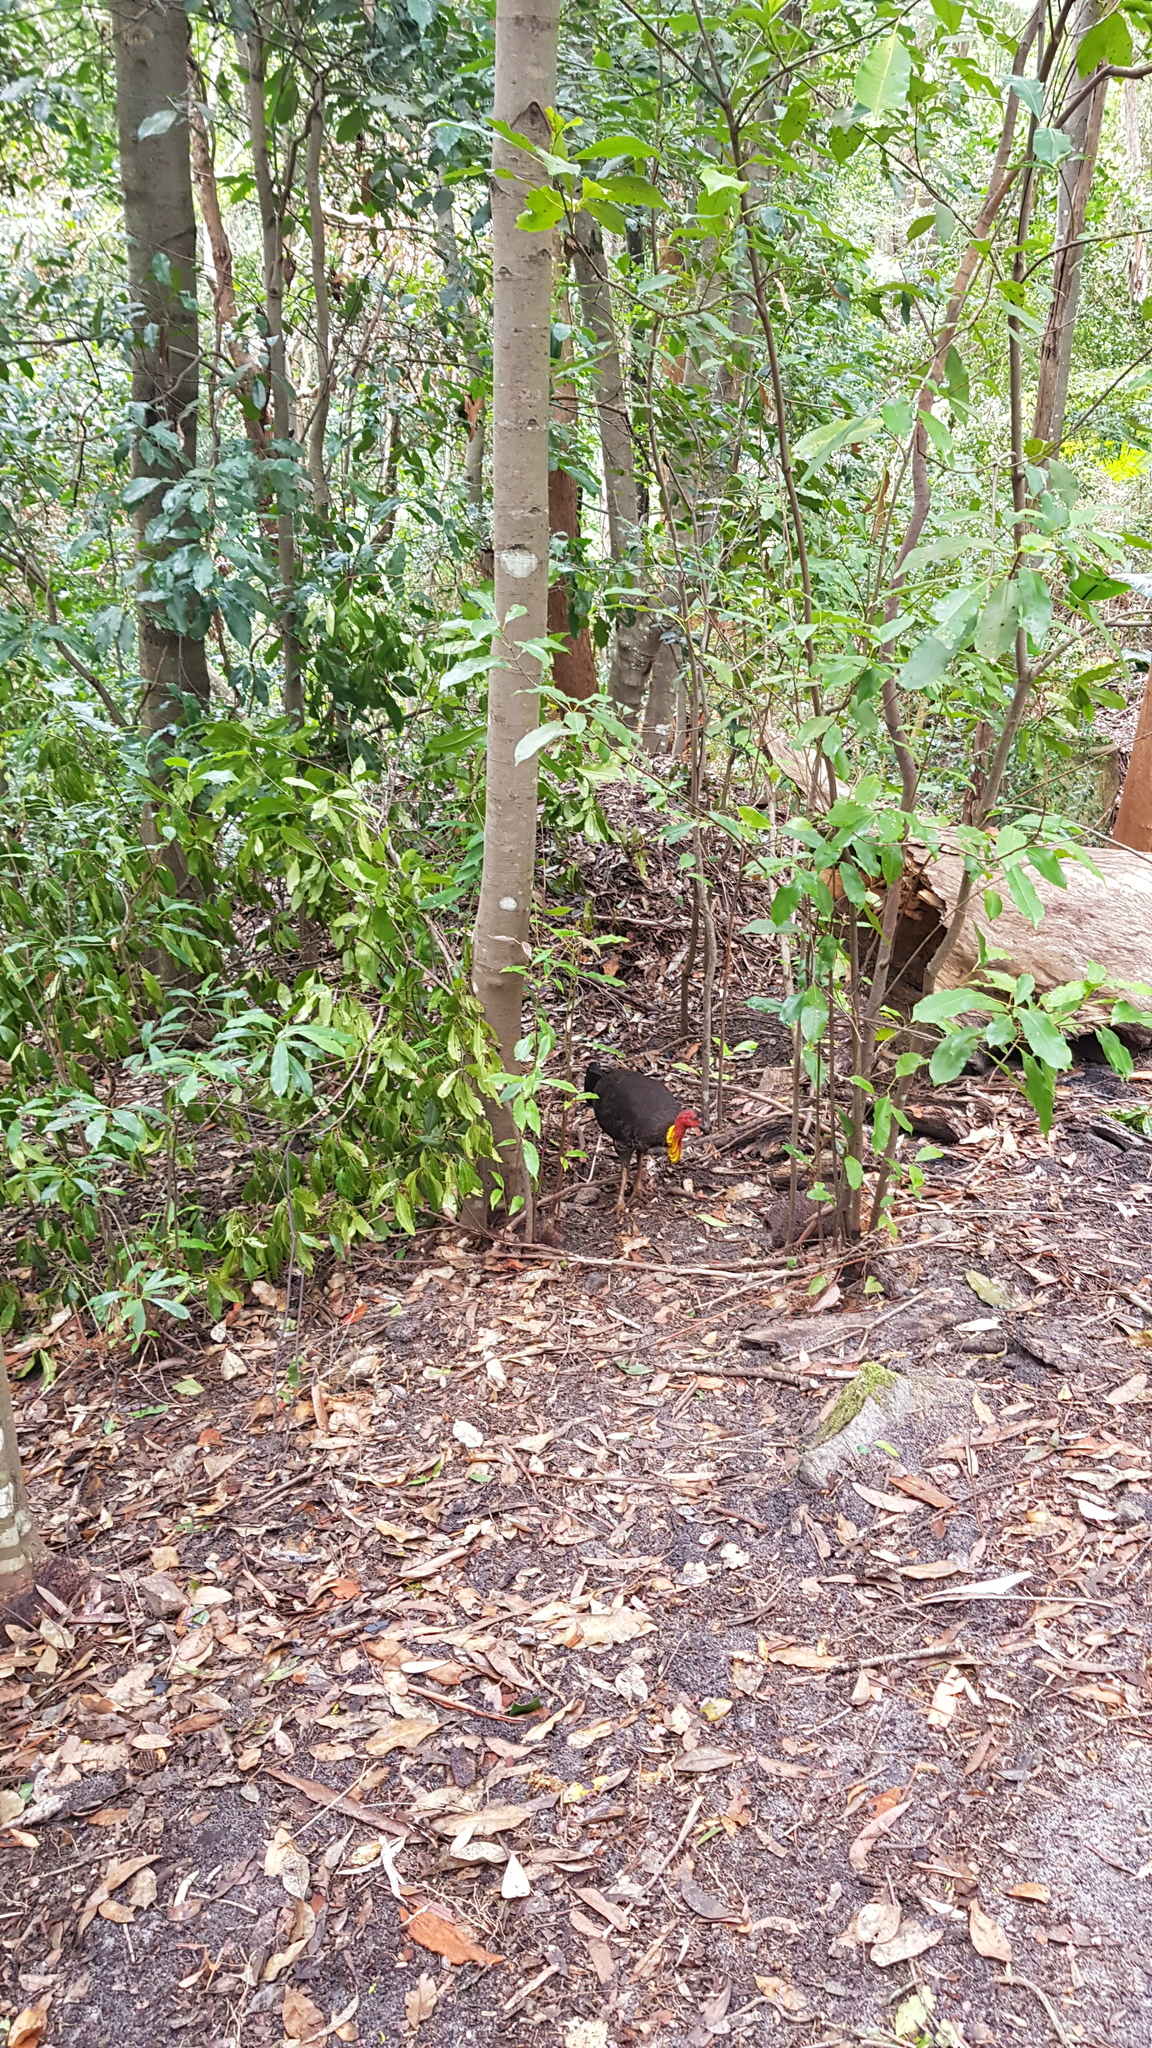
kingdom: Animalia
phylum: Chordata
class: Aves
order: Galliformes
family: Megapodiidae
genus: Alectura
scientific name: Alectura lathami
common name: Australian brushturkey
